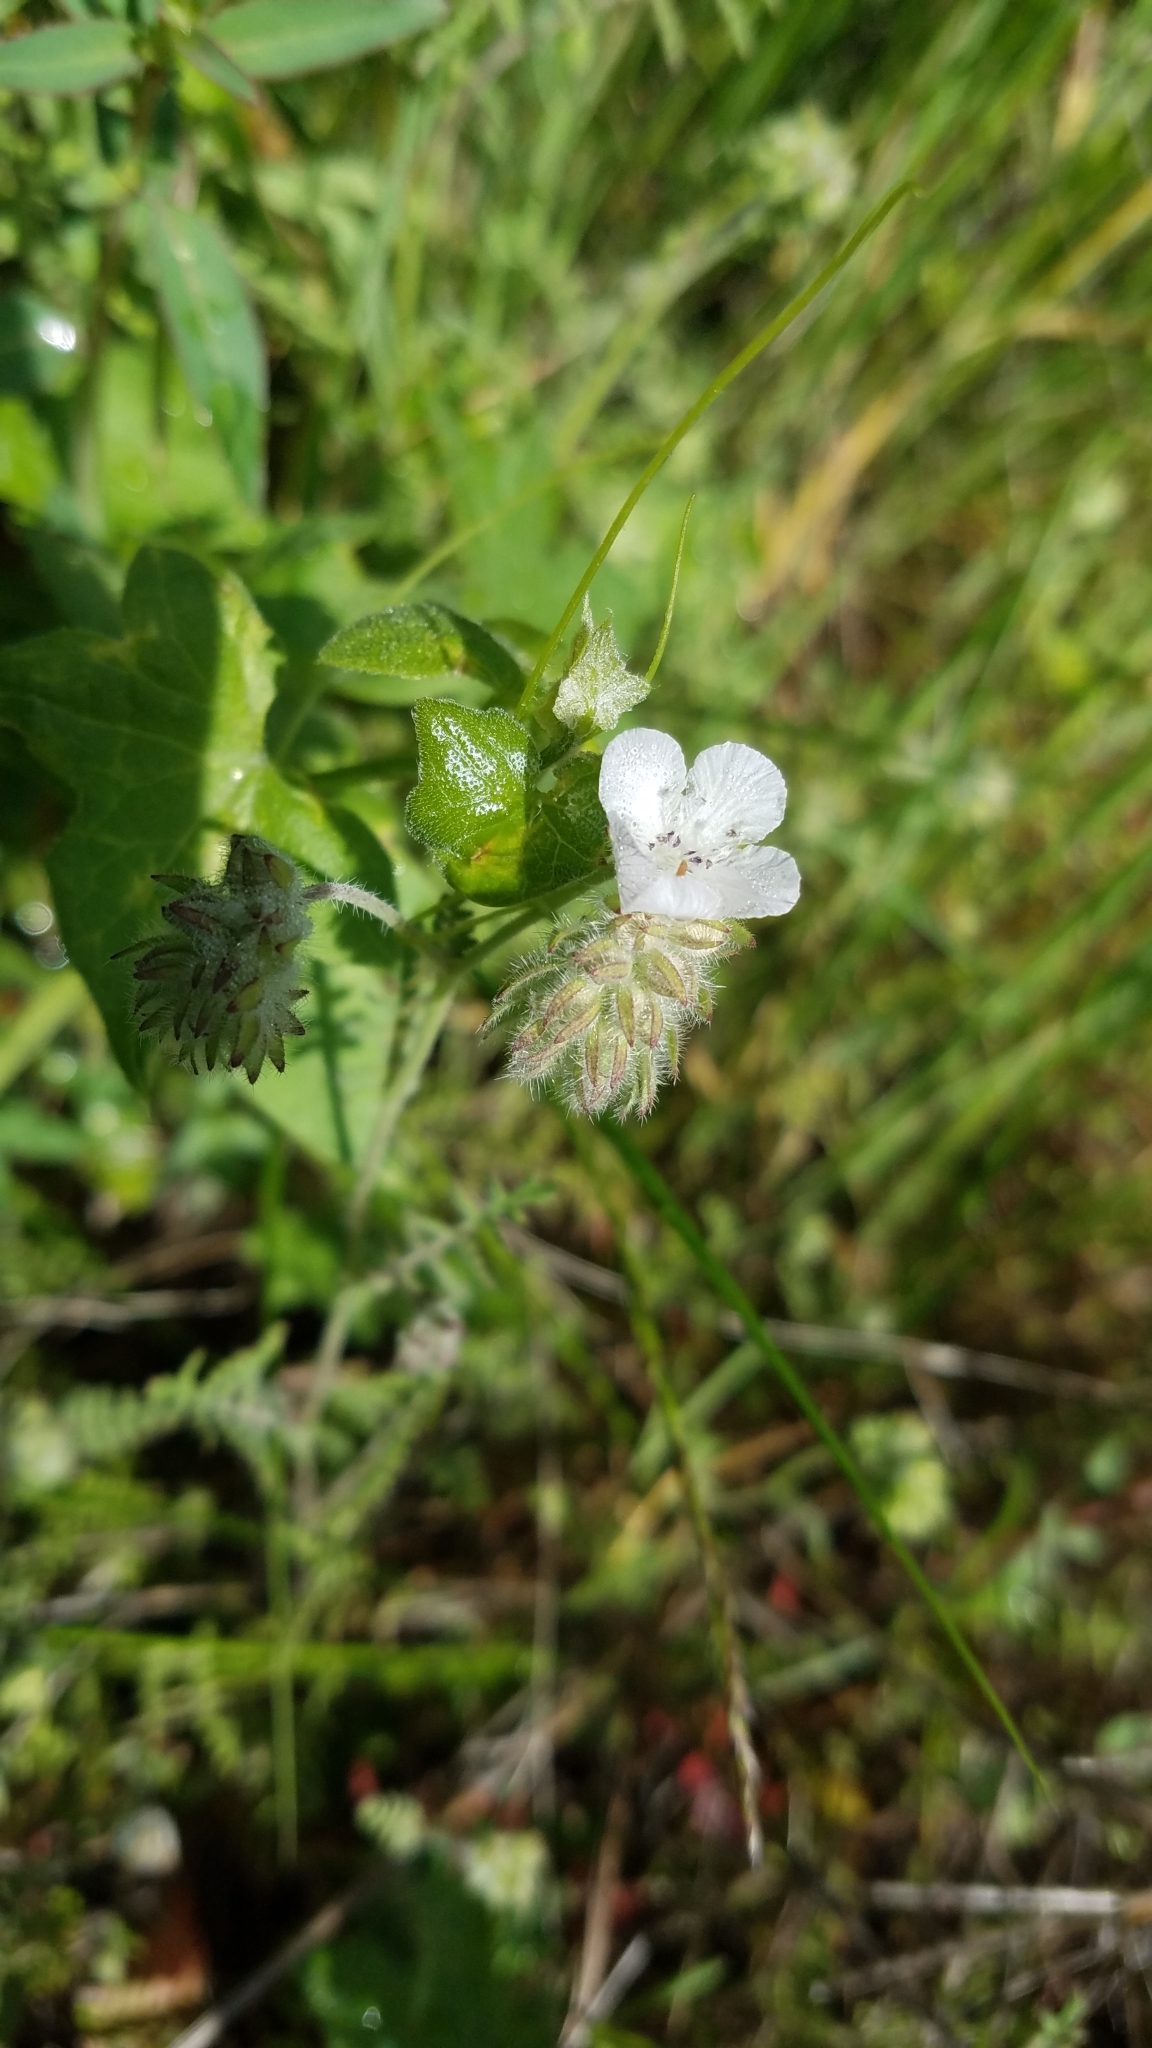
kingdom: Plantae
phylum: Tracheophyta
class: Magnoliopsida
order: Boraginales
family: Hydrophyllaceae
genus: Phacelia
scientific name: Phacelia distans
